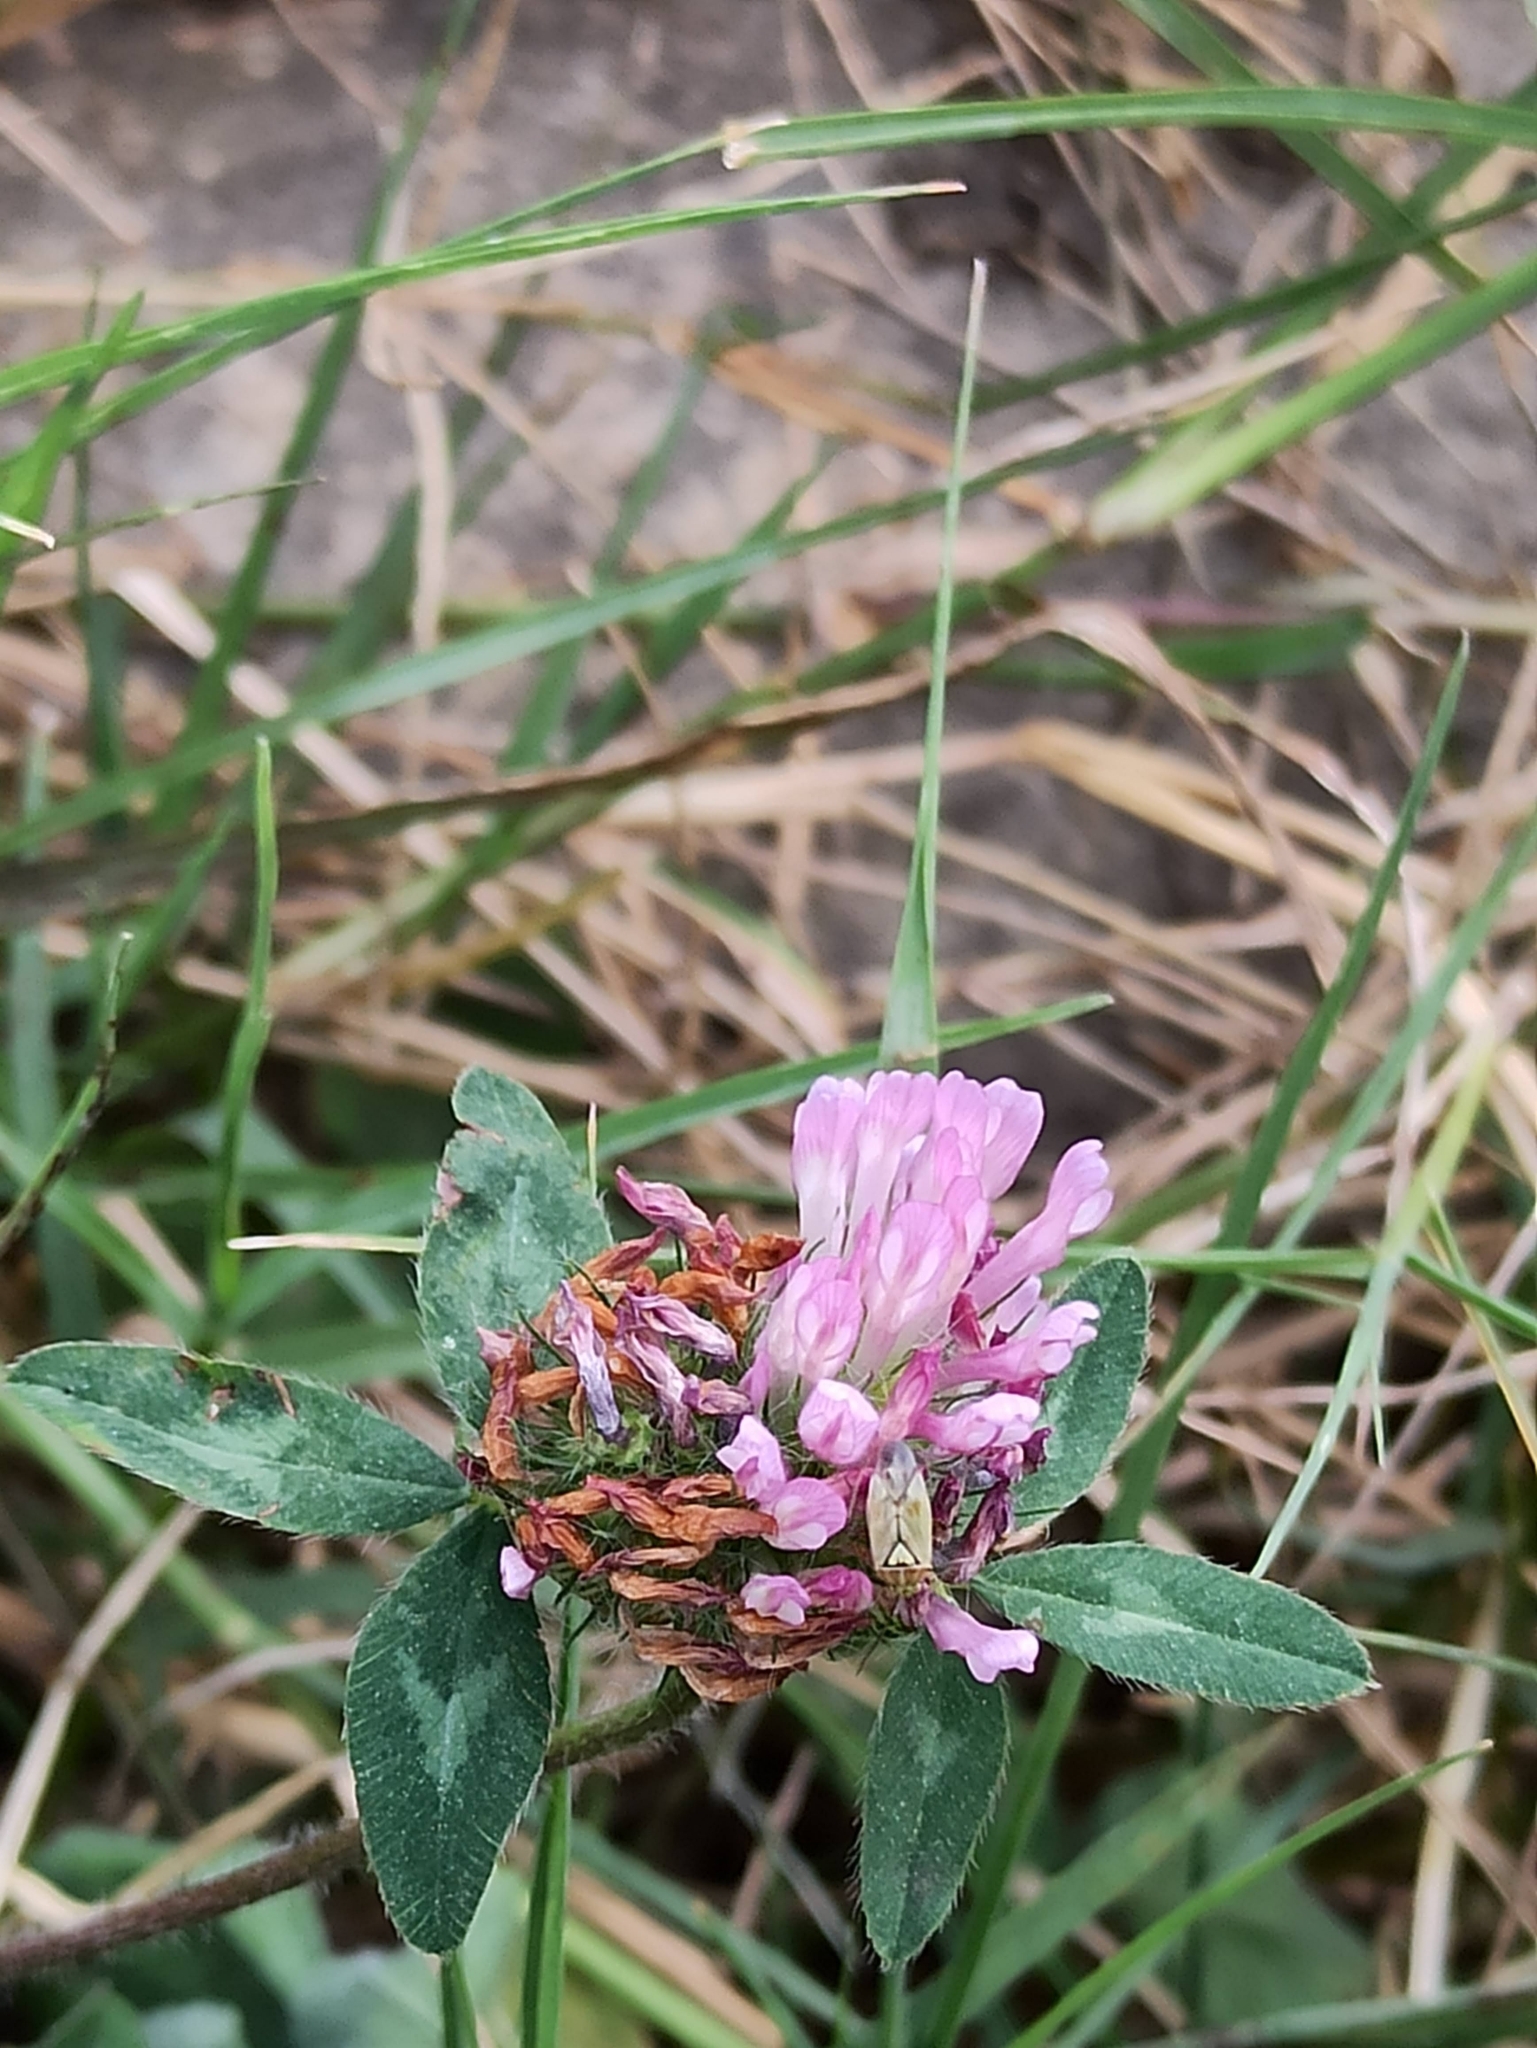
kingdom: Plantae
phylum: Tracheophyta
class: Magnoliopsida
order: Fabales
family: Fabaceae
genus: Trifolium
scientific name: Trifolium pratense
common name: Red clover
